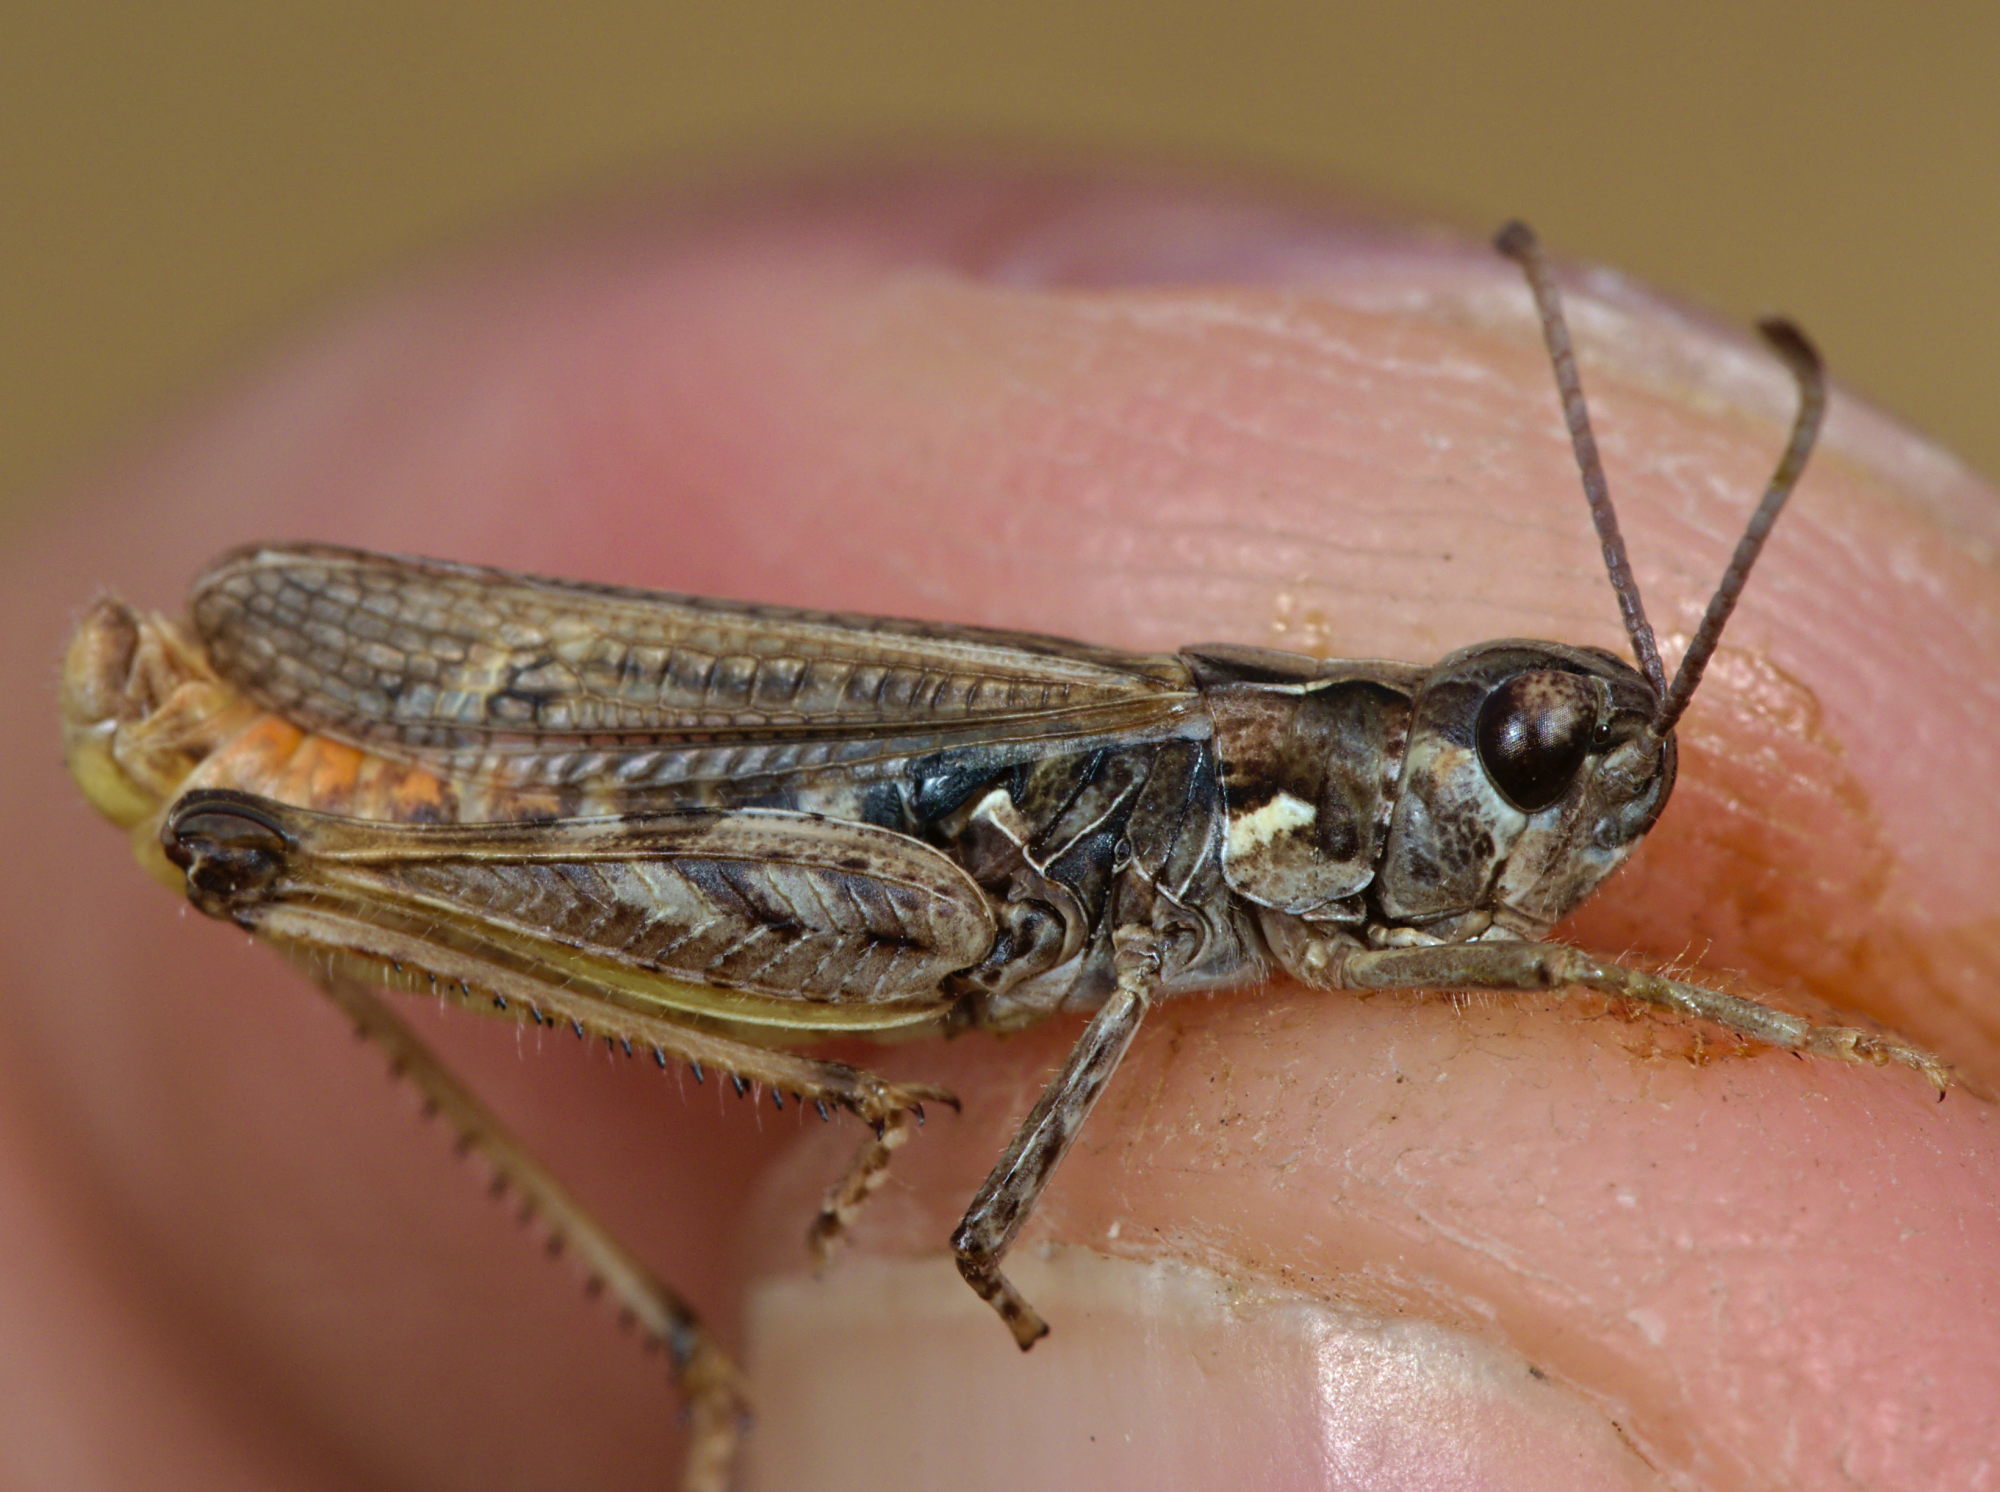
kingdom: Animalia
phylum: Arthropoda
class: Insecta
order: Orthoptera
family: Acrididae
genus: Myrmeleotettix
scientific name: Myrmeleotettix maculatus
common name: Mottled grasshopper
